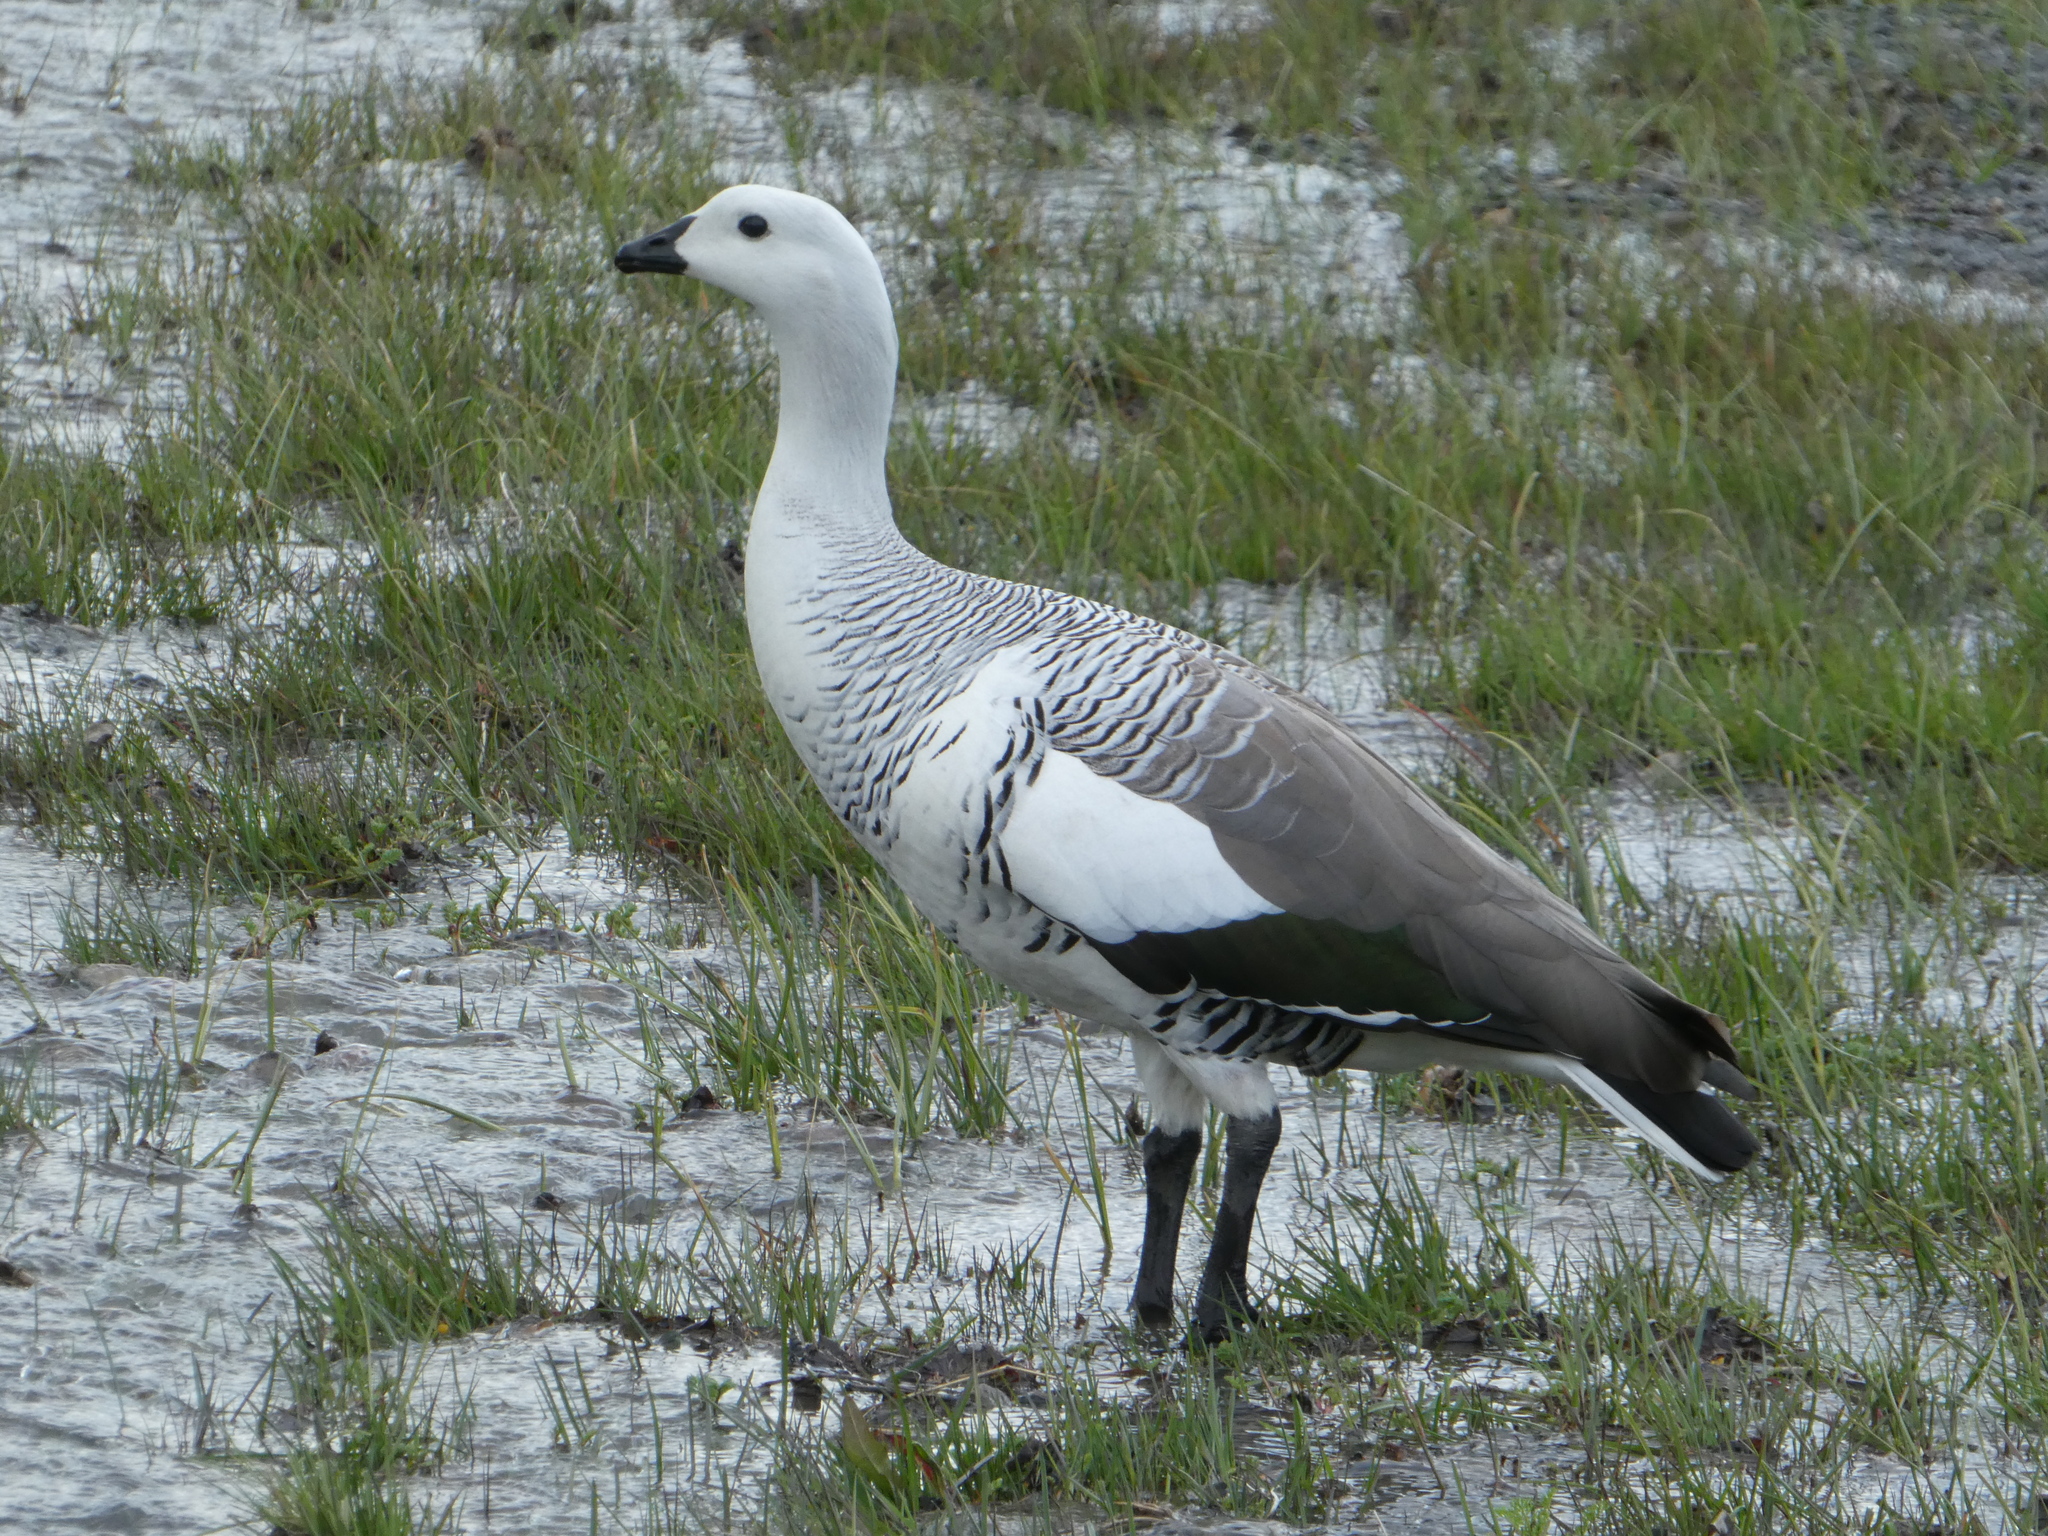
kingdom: Animalia
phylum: Chordata
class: Aves
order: Anseriformes
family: Anatidae
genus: Chloephaga
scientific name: Chloephaga picta
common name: Upland goose
